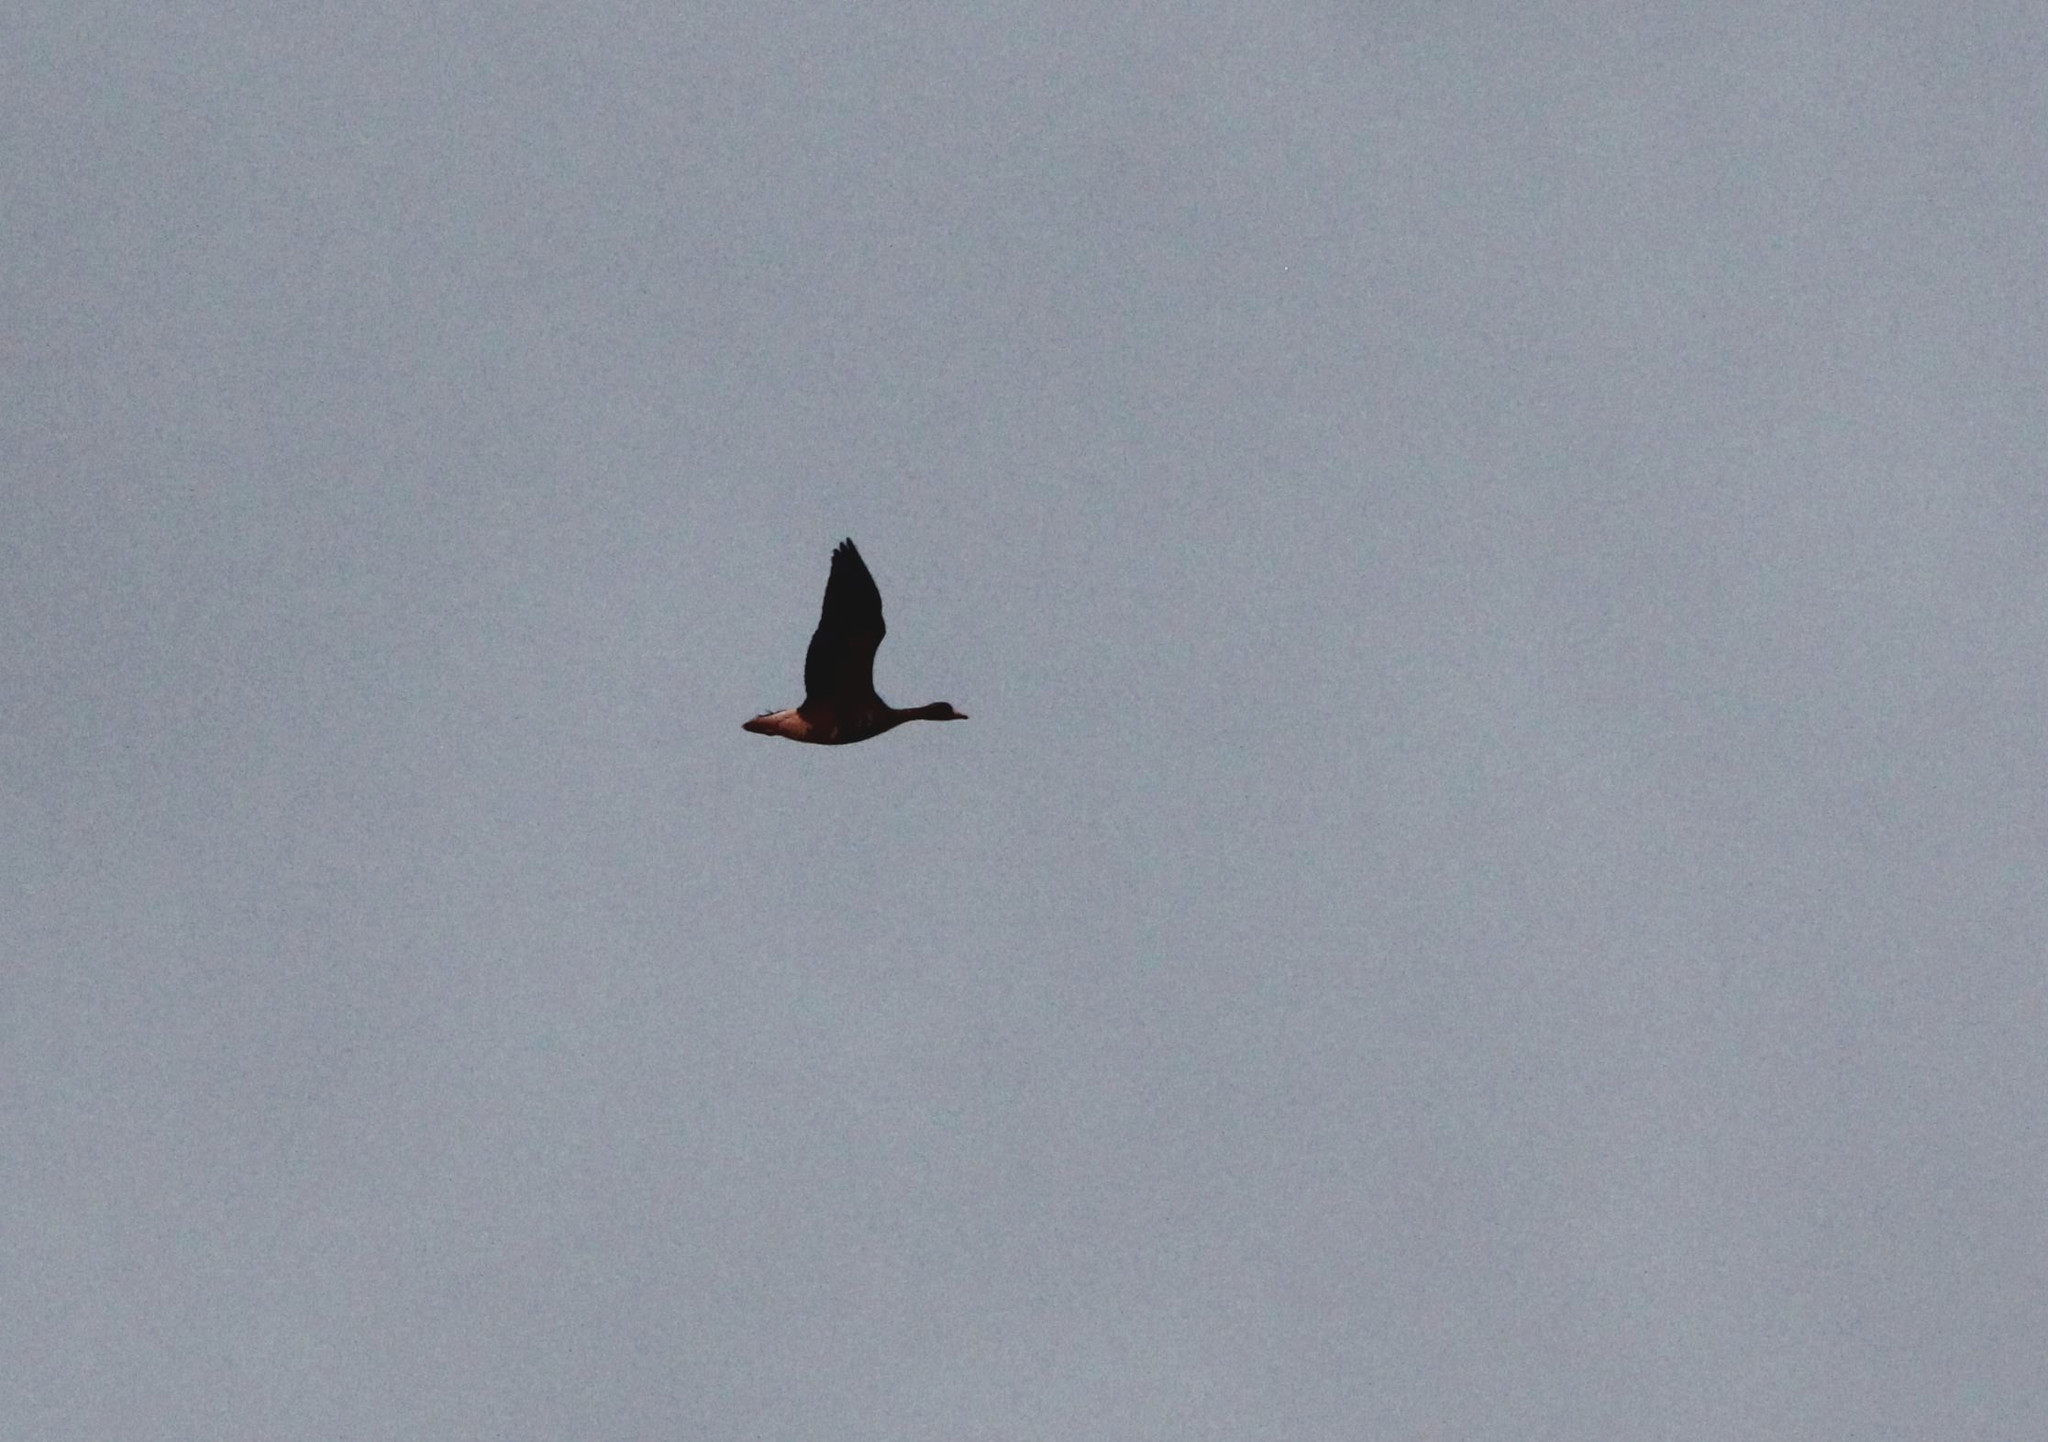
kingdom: Animalia
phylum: Chordata
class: Aves
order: Anseriformes
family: Anatidae
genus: Anser
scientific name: Anser albifrons
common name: Greater white-fronted goose
